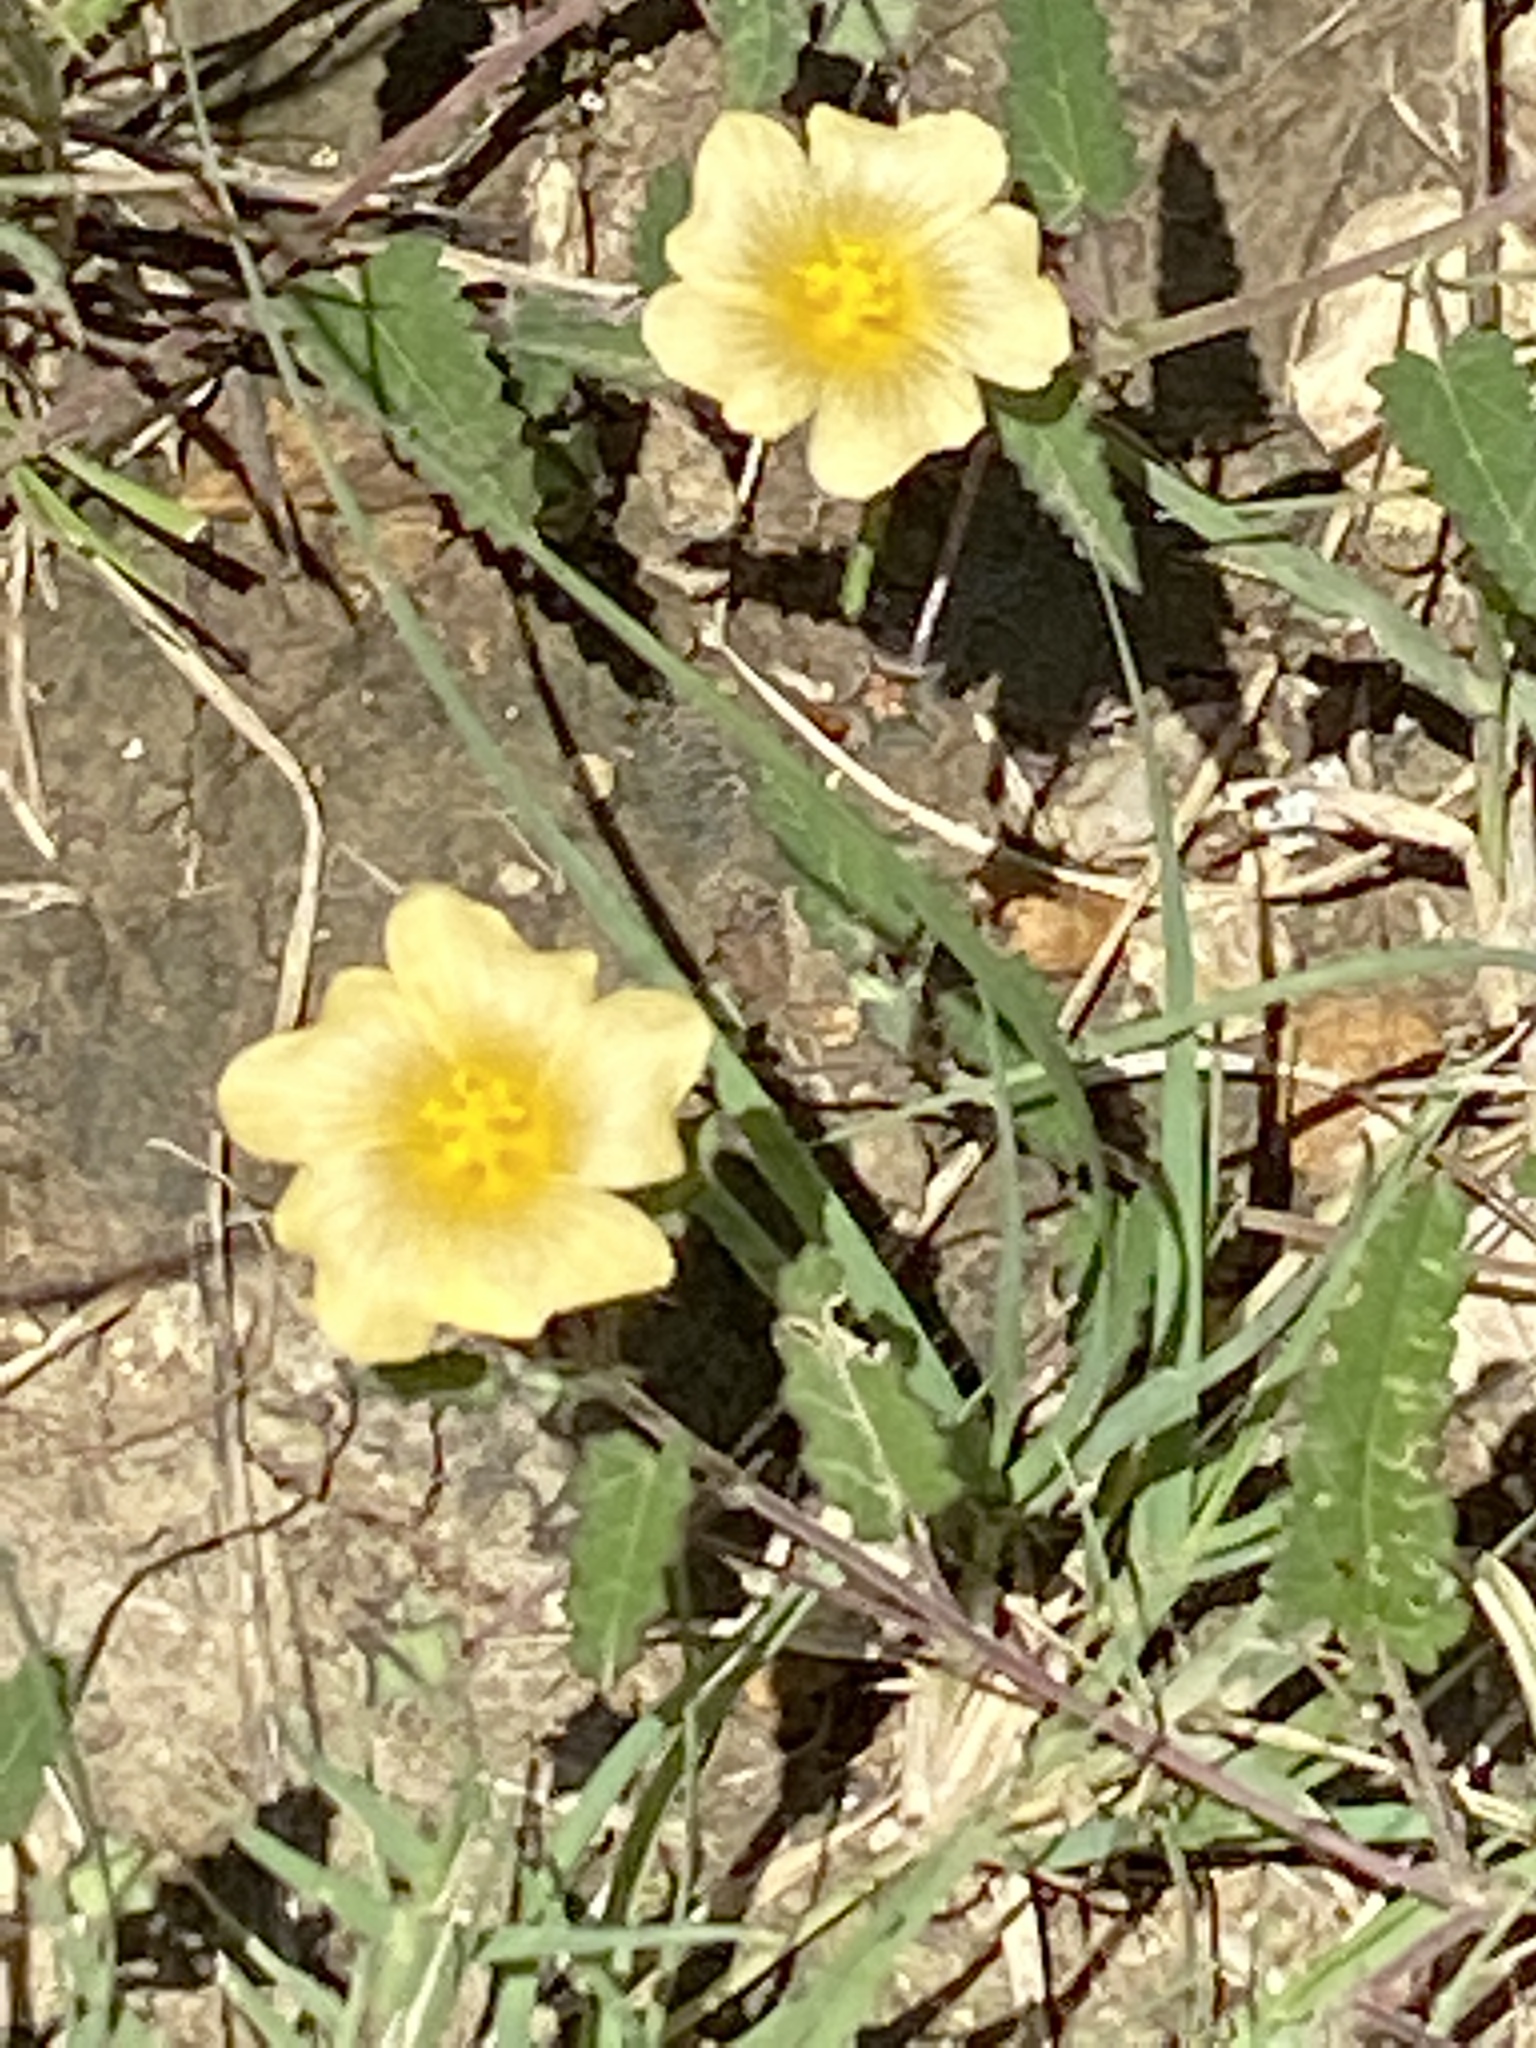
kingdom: Plantae
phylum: Tracheophyta
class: Magnoliopsida
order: Malvales
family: Malvaceae
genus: Sida
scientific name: Sida abutilifolia
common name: Spreading fanpetals
